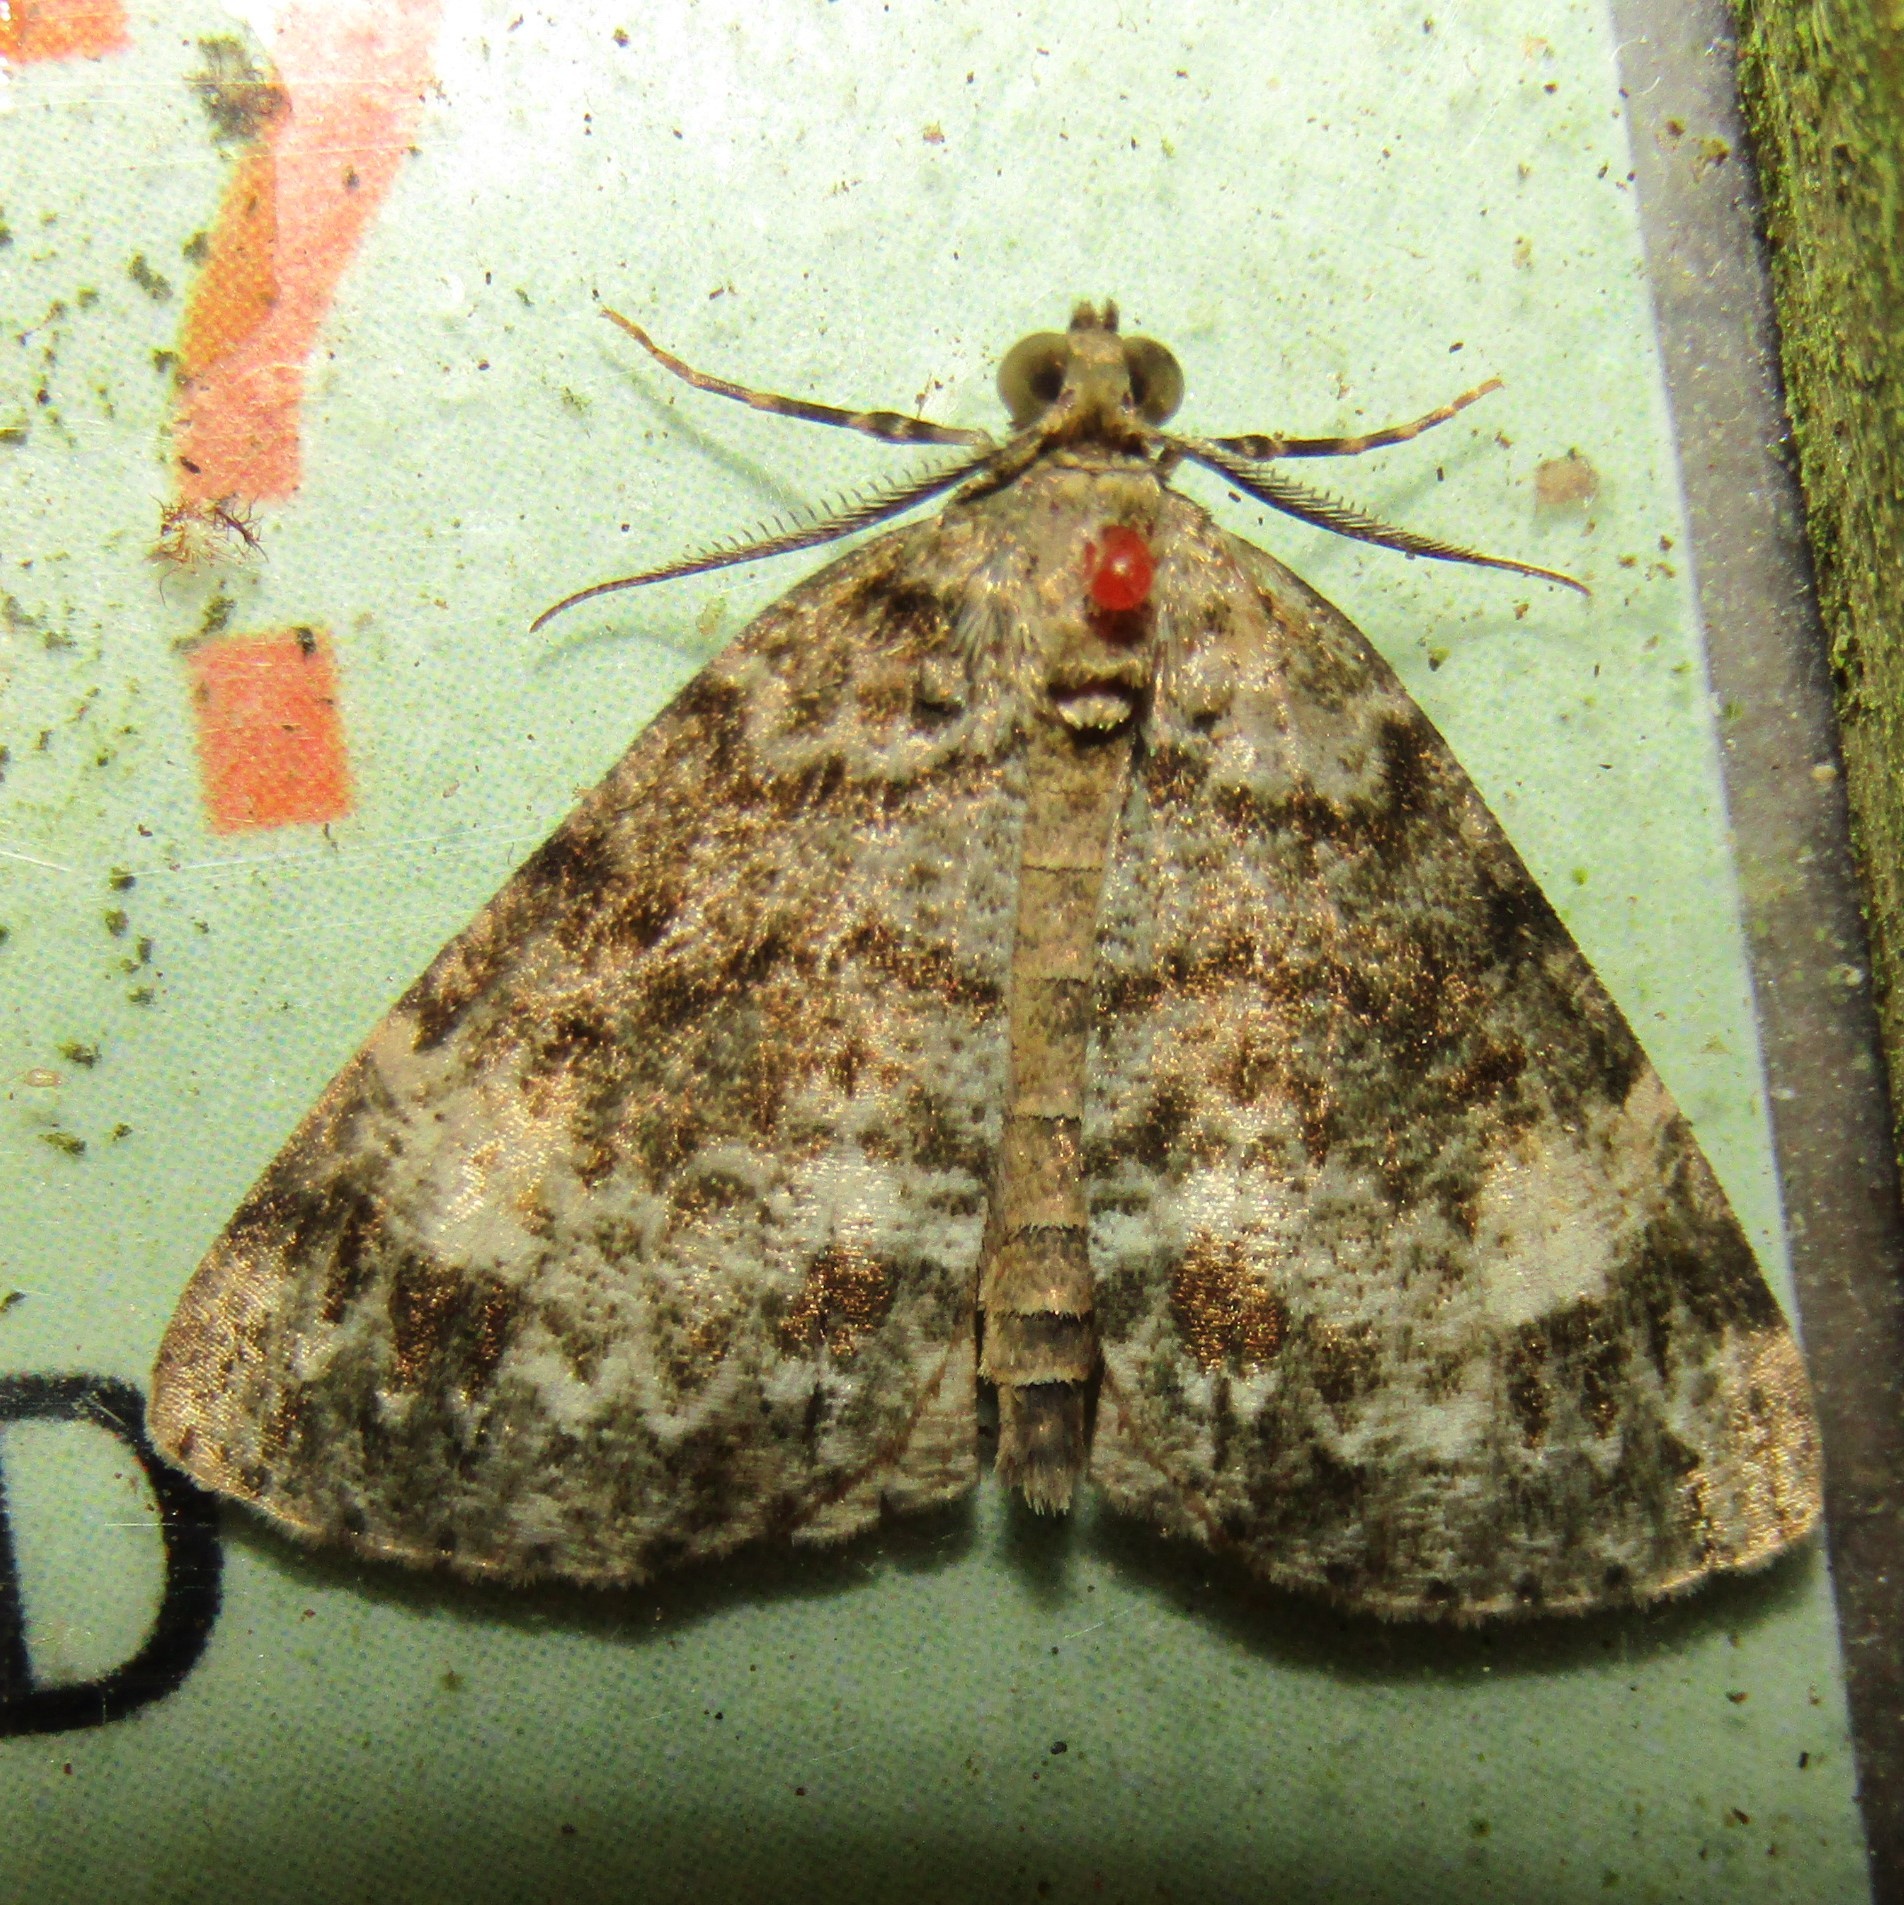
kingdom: Animalia
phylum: Arthropoda
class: Insecta
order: Lepidoptera
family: Geometridae
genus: Pseudocoremia
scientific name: Pseudocoremia indistincta
